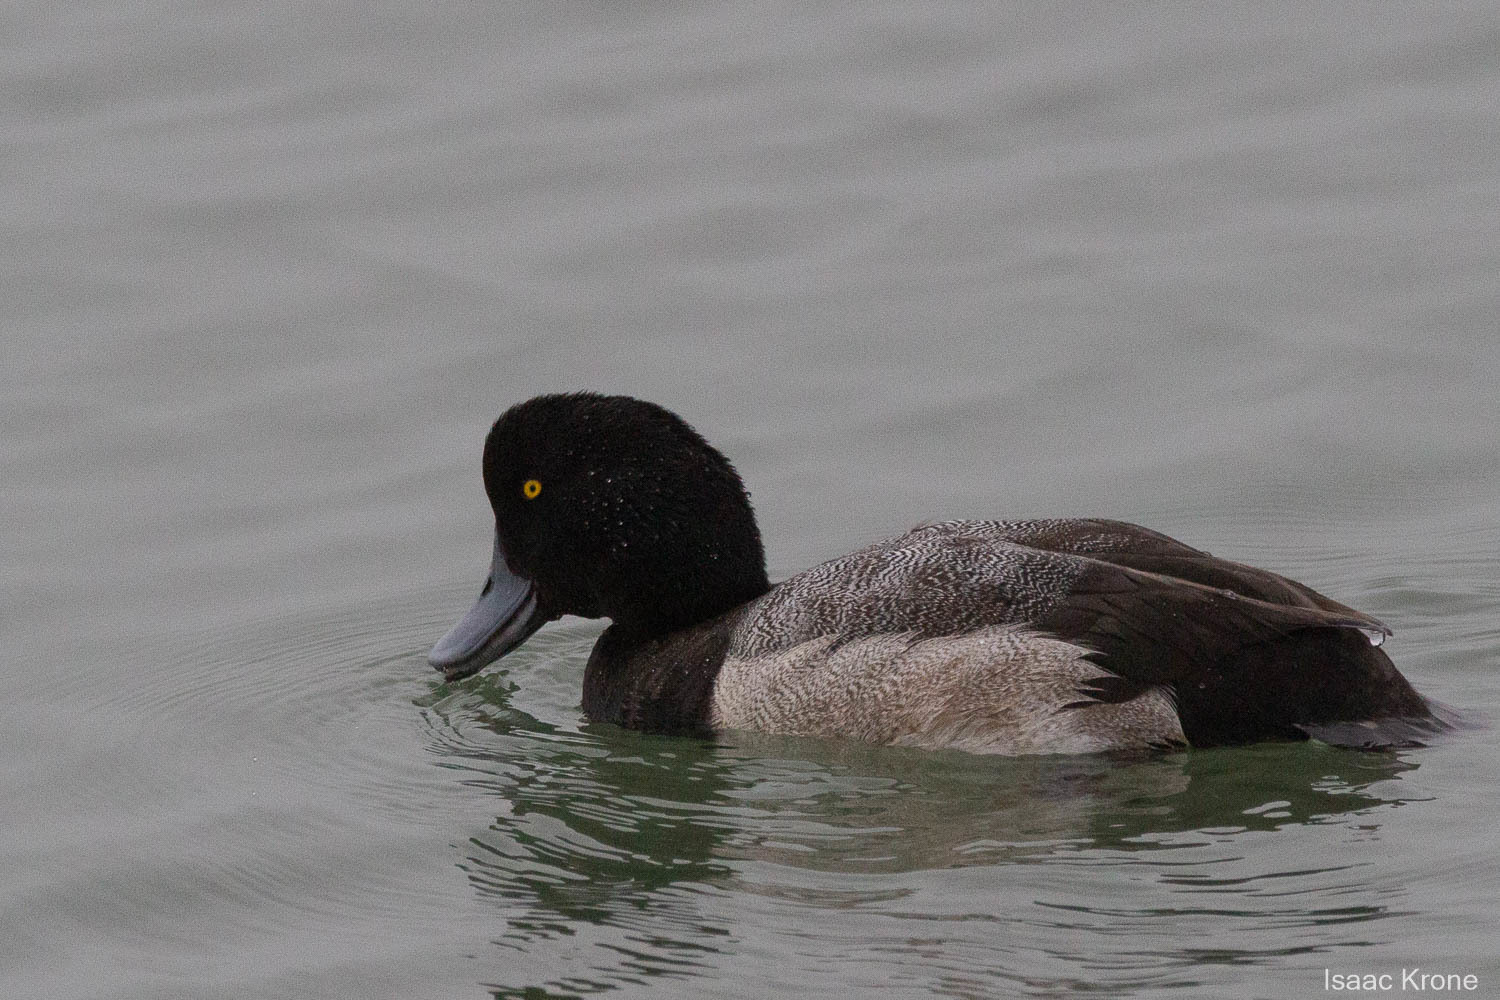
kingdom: Animalia
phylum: Chordata
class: Aves
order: Anseriformes
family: Anatidae
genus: Aythya
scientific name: Aythya marila
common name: Greater scaup
